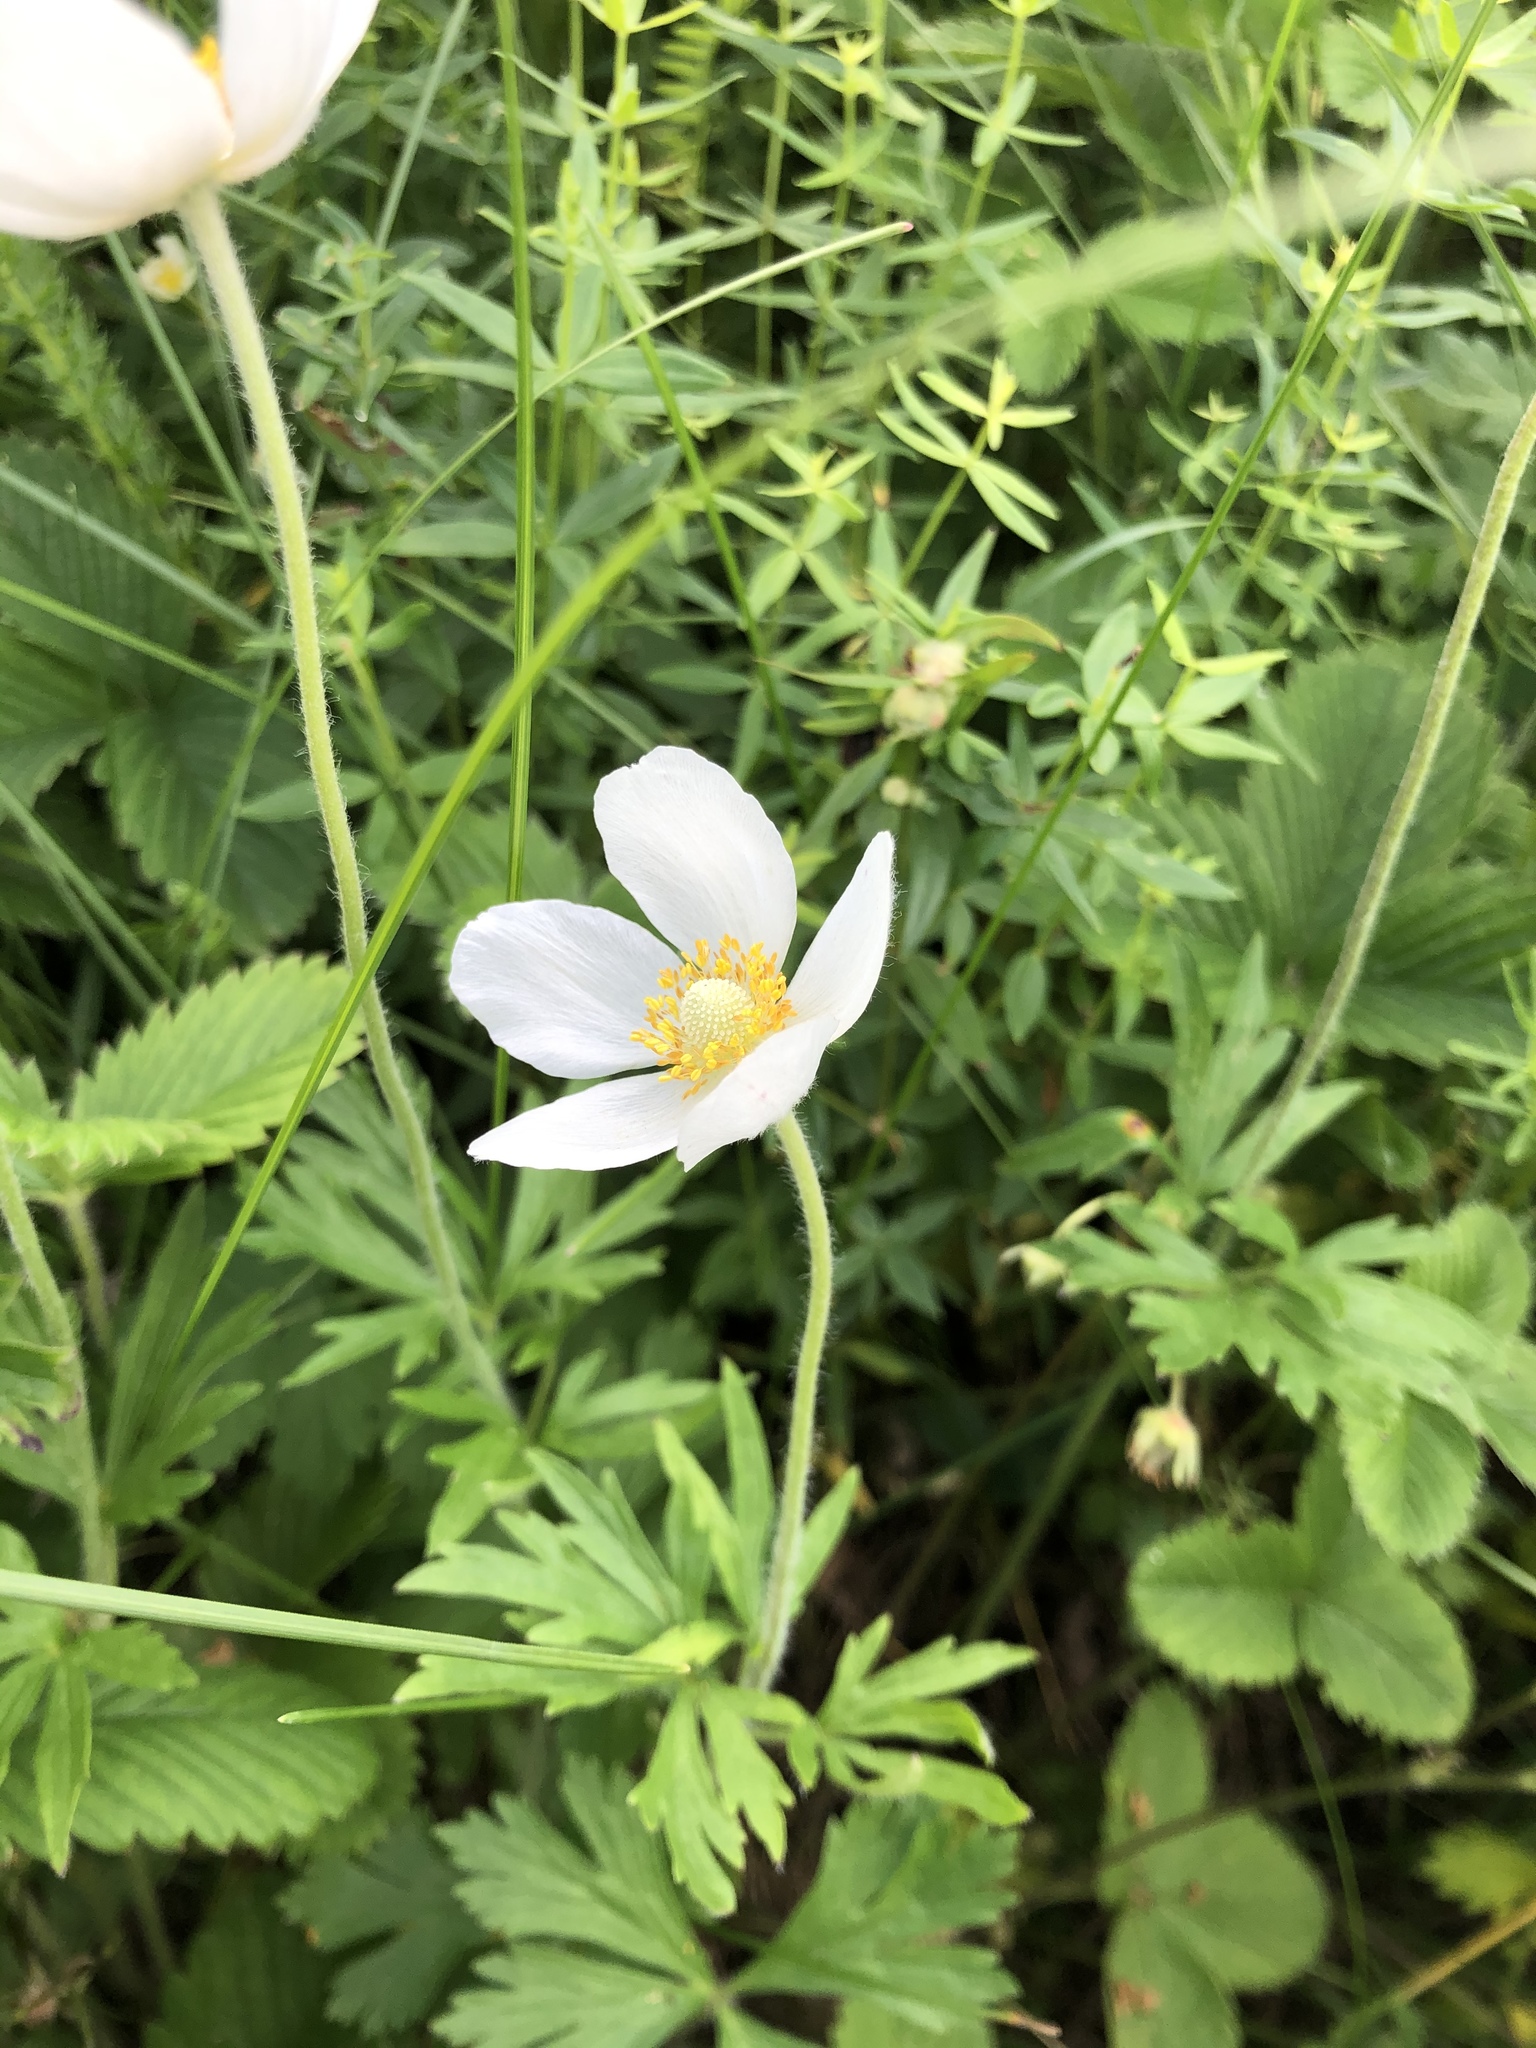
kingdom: Plantae
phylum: Tracheophyta
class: Magnoliopsida
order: Ranunculales
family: Ranunculaceae
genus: Anemone
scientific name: Anemone sylvestris
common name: Snowdrop anemone
